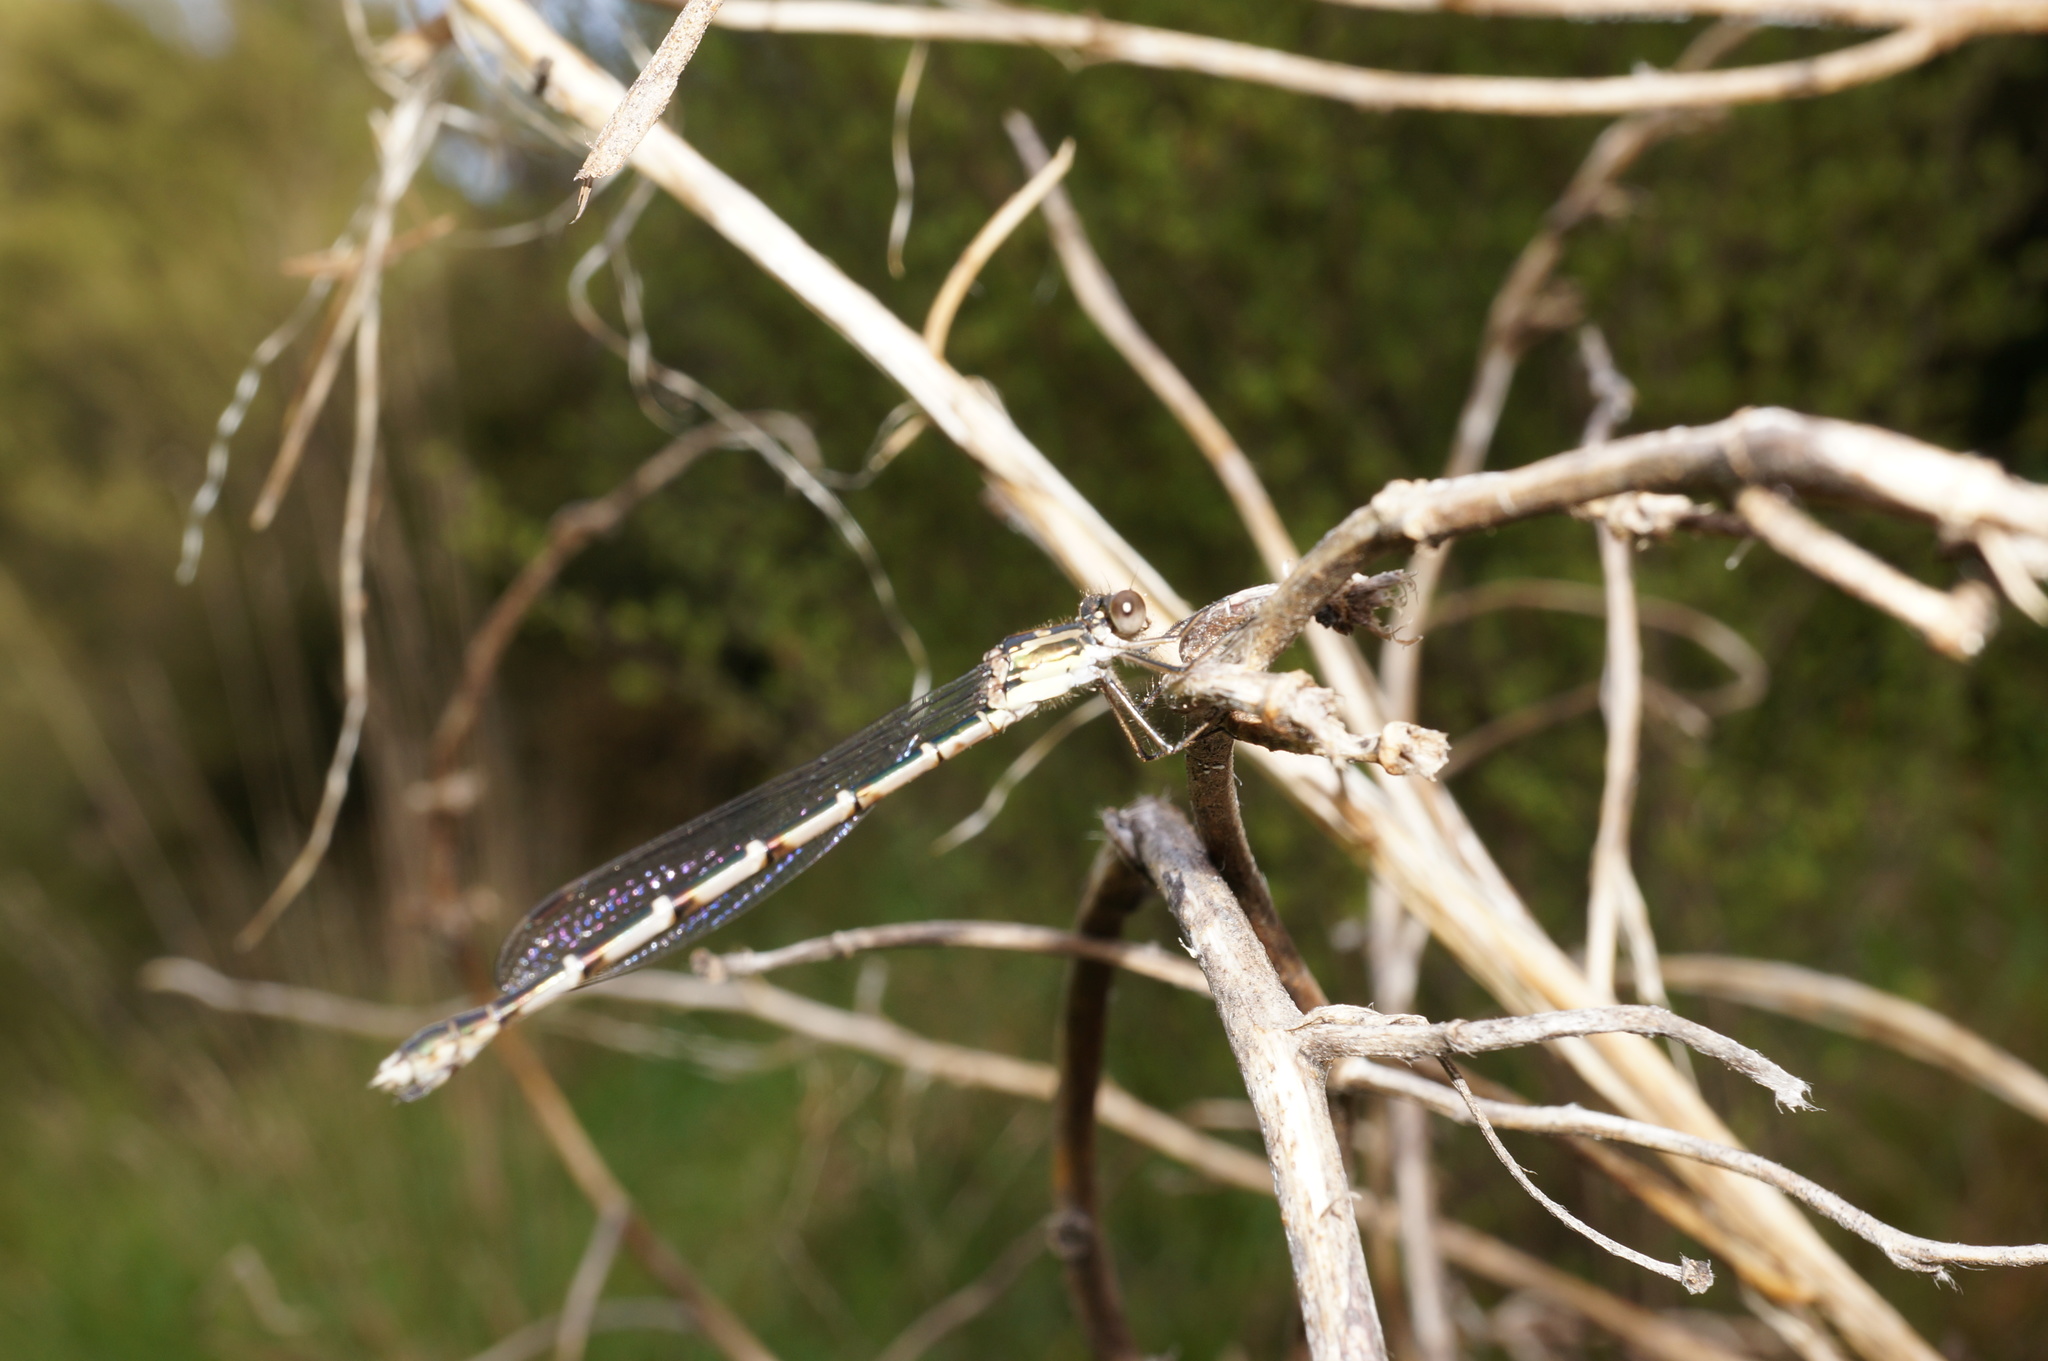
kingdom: Animalia
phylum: Arthropoda
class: Insecta
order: Odonata
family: Lestidae
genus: Austrolestes
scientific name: Austrolestes colensonis
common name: Blue damselfly
